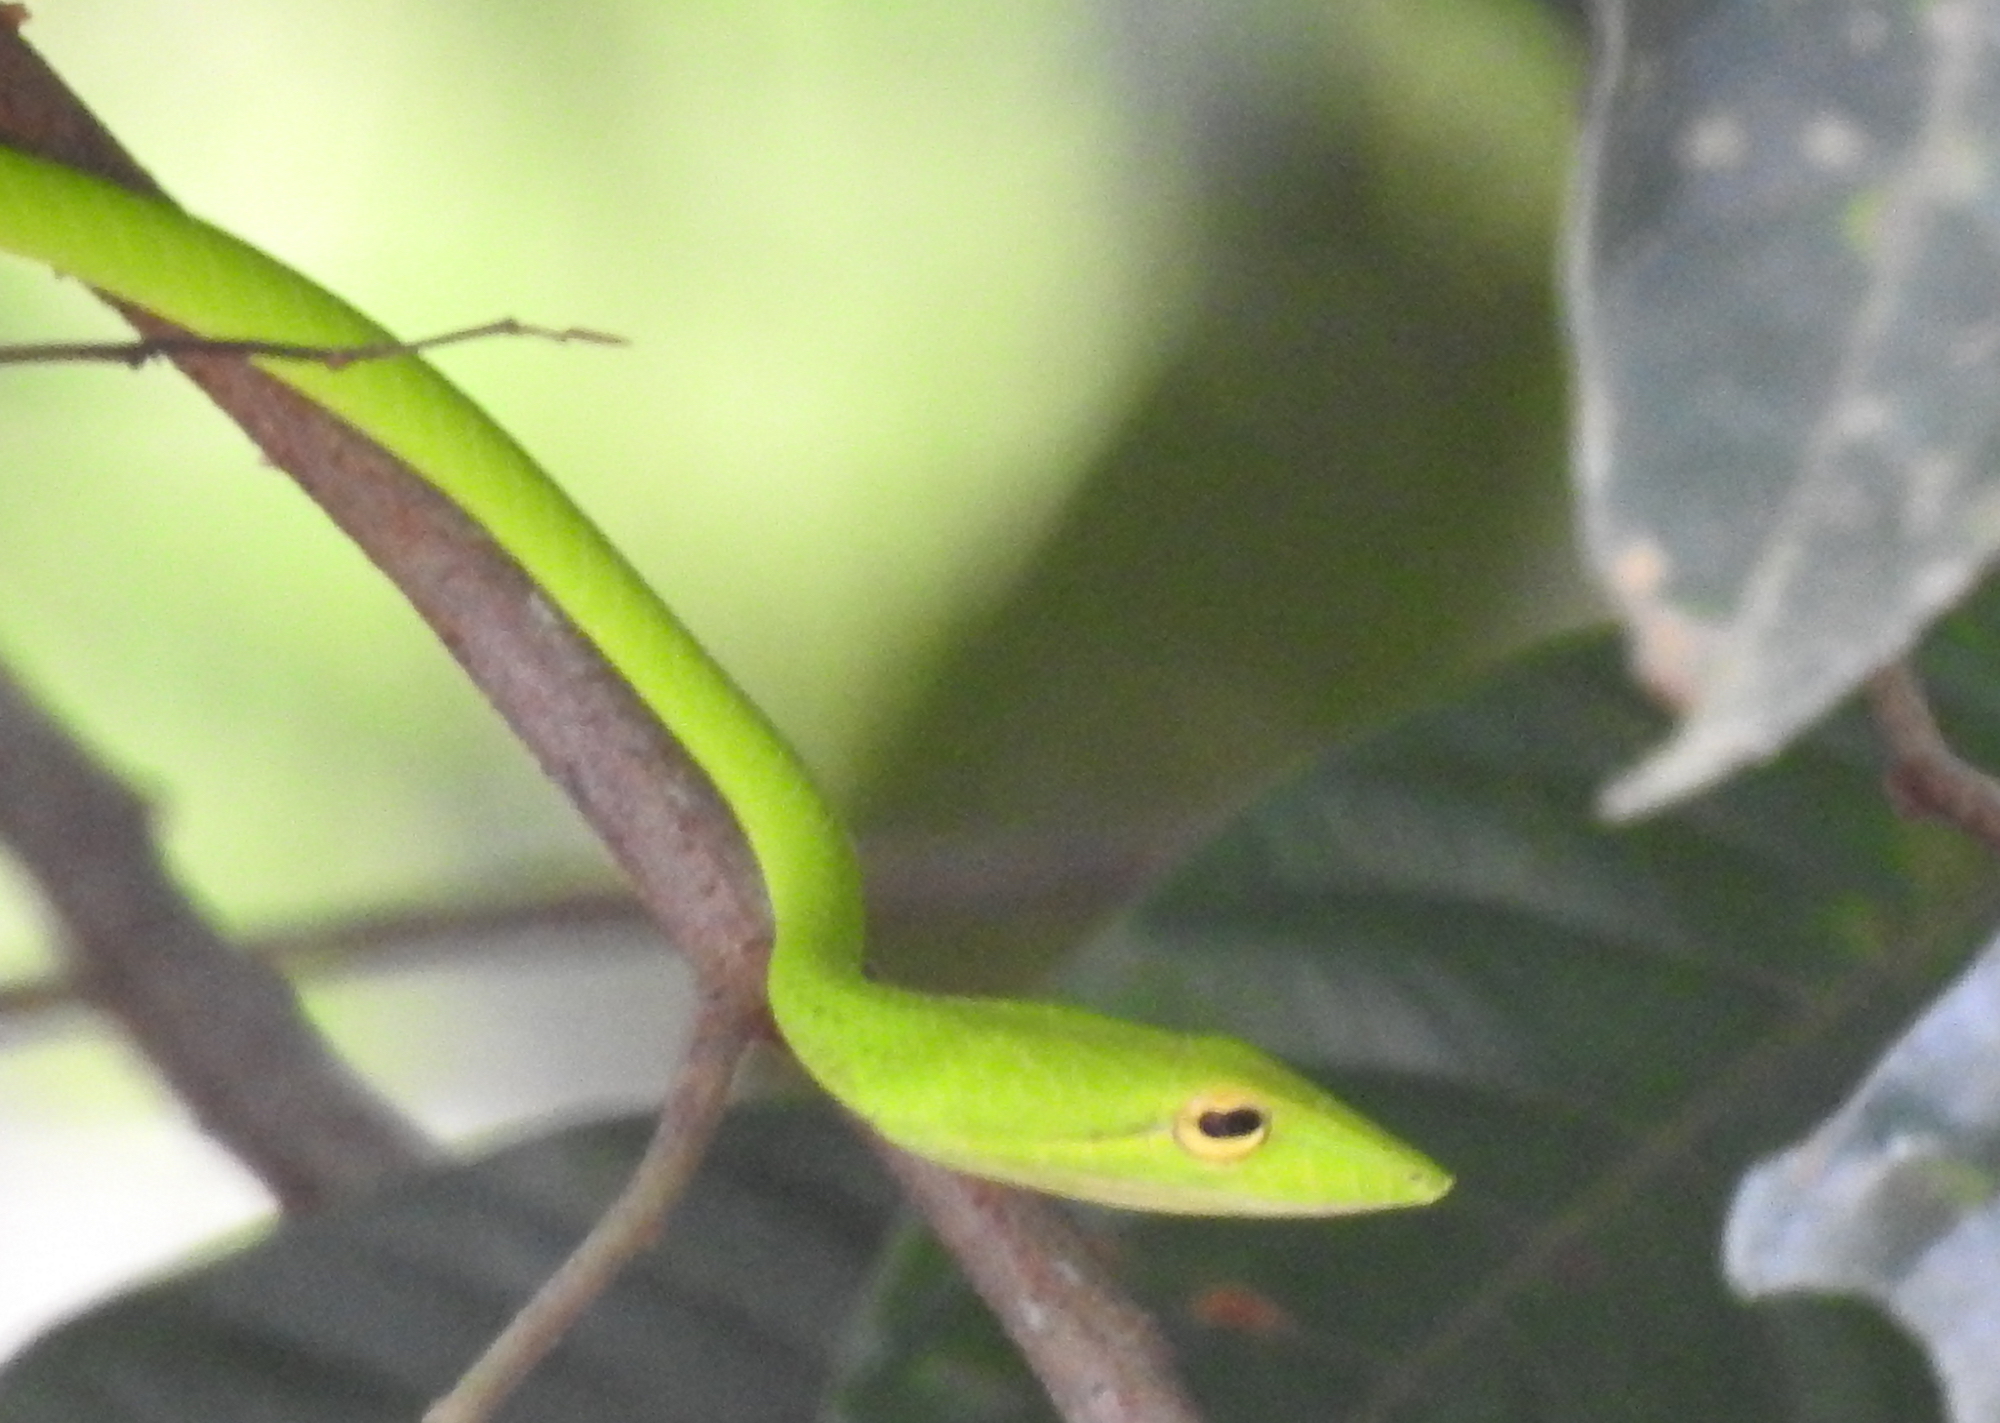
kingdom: Animalia
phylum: Chordata
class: Squamata
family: Colubridae
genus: Ahaetulla
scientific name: Ahaetulla prasina
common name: Oriental whip snake
